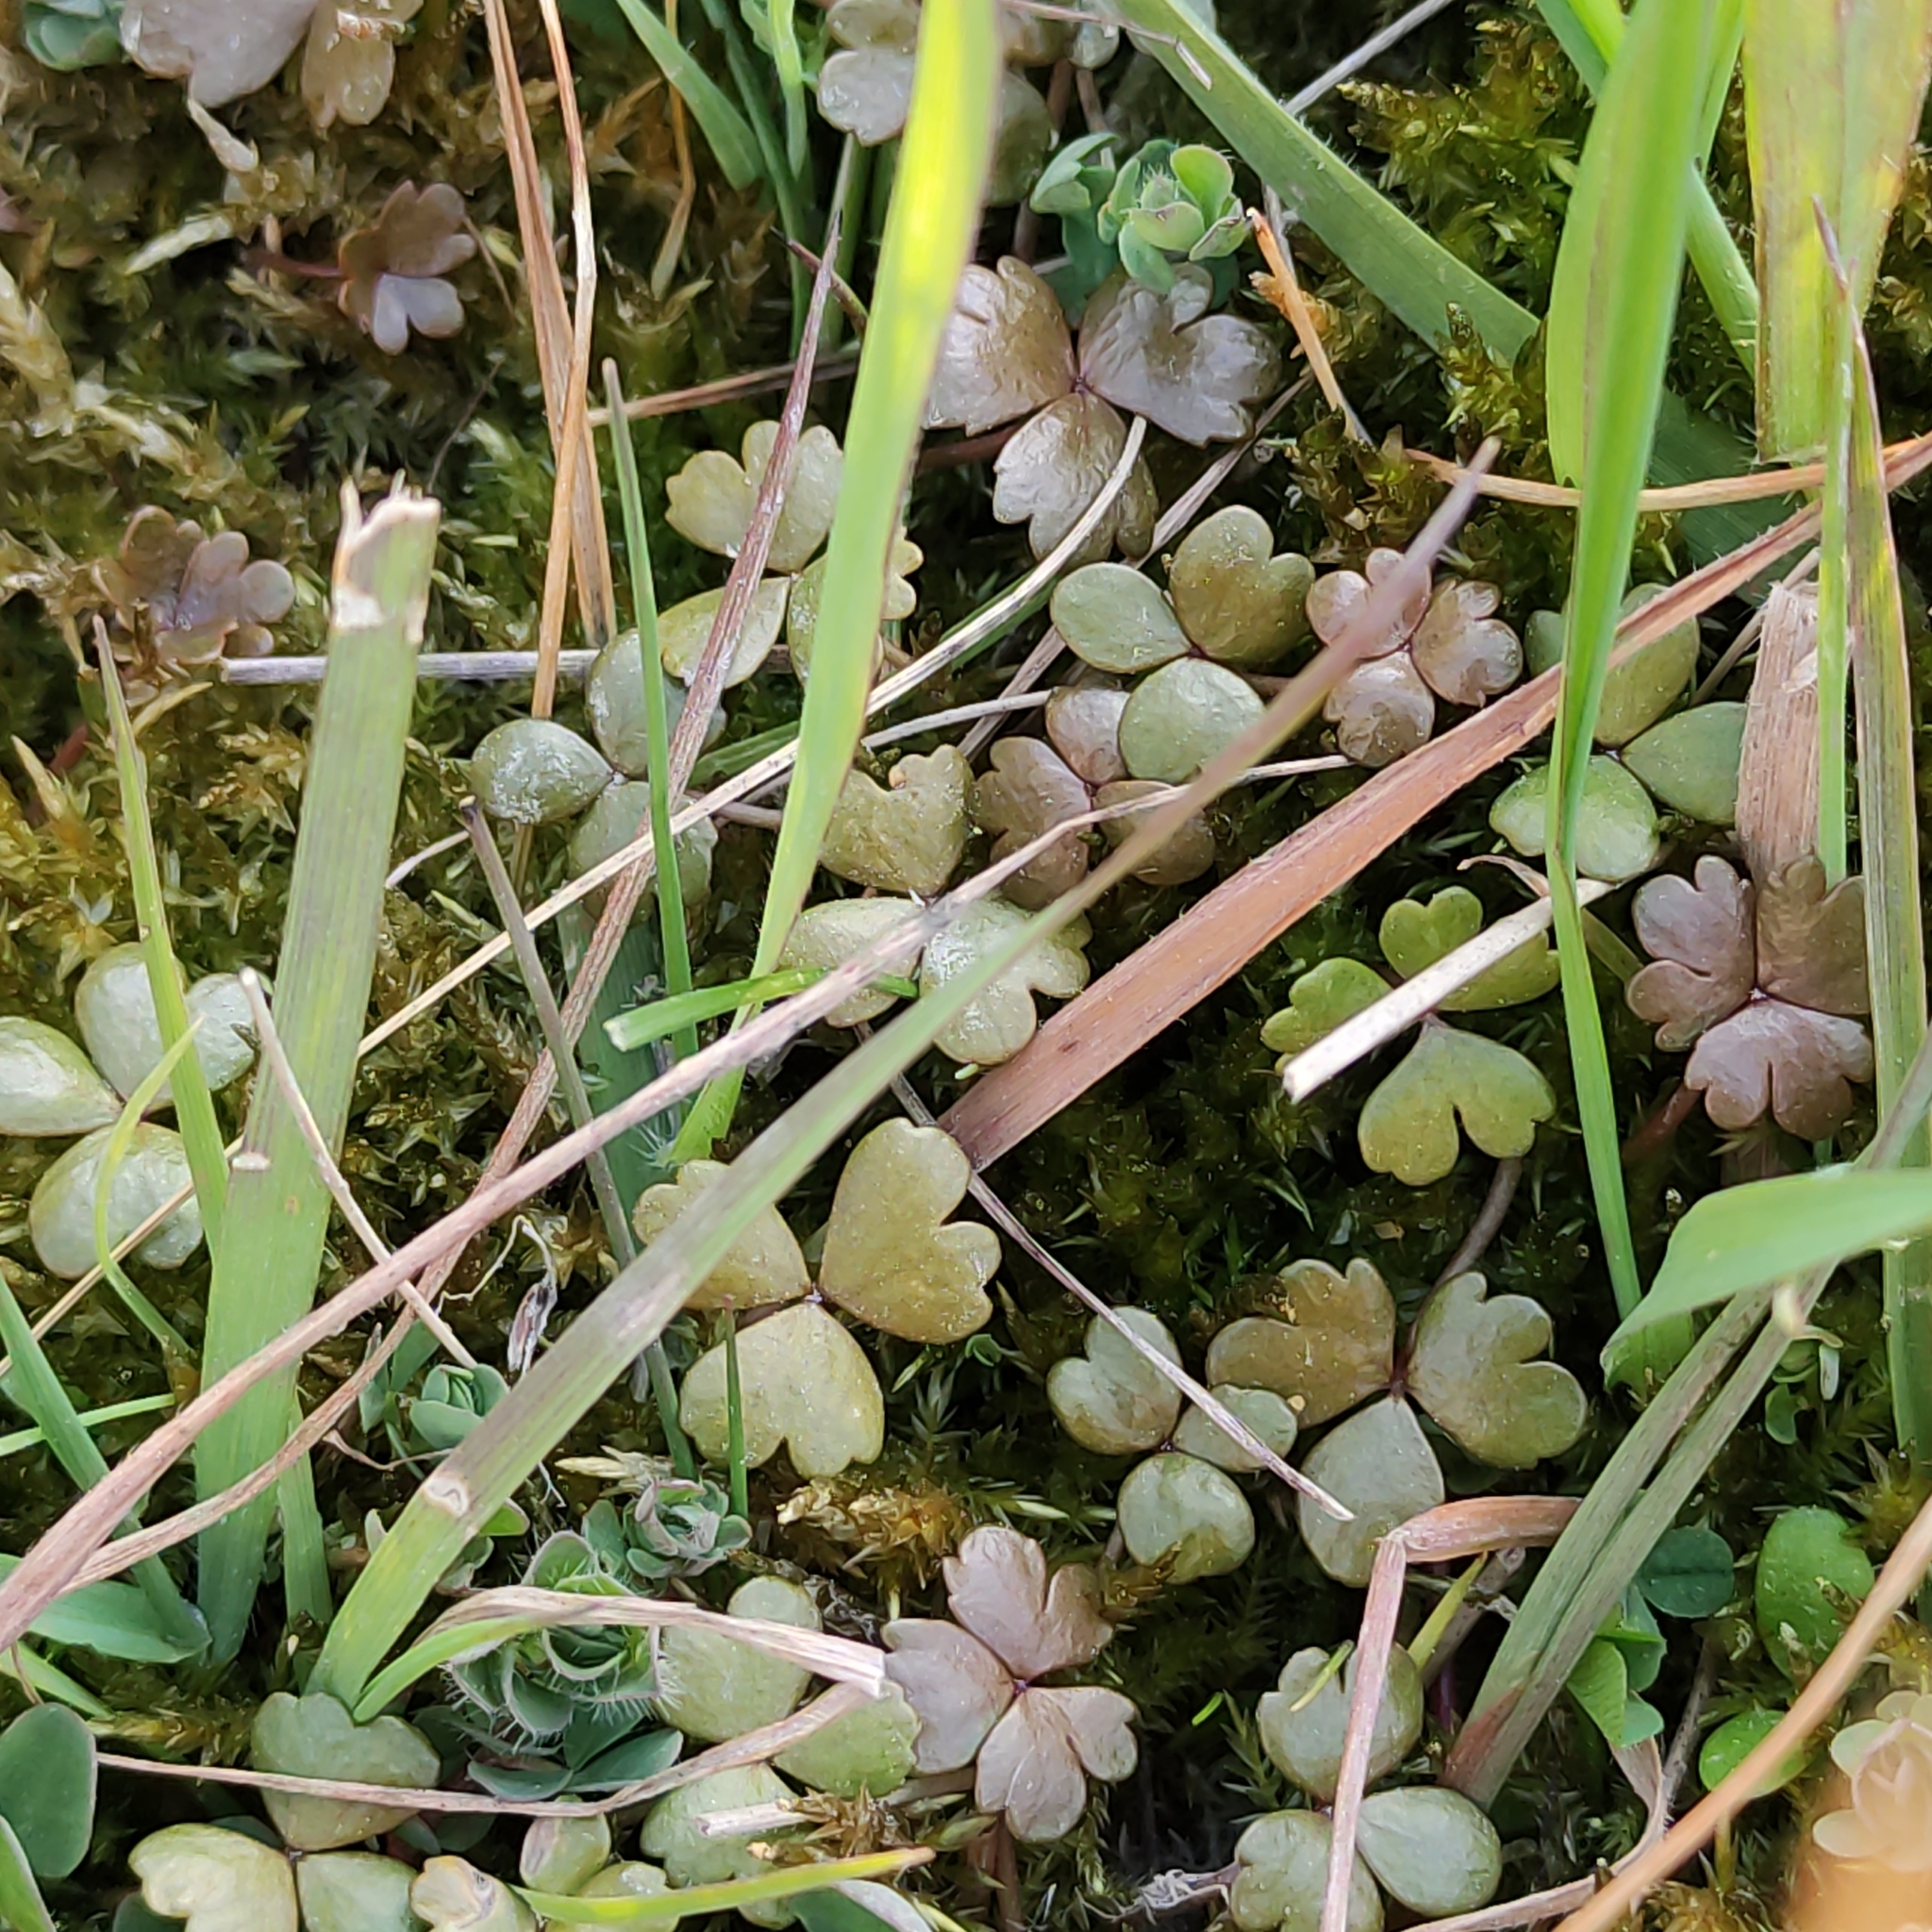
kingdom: Plantae
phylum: Tracheophyta
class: Magnoliopsida
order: Apiales
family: Araliaceae
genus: Hydrocotyle
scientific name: Hydrocotyle sulcata
